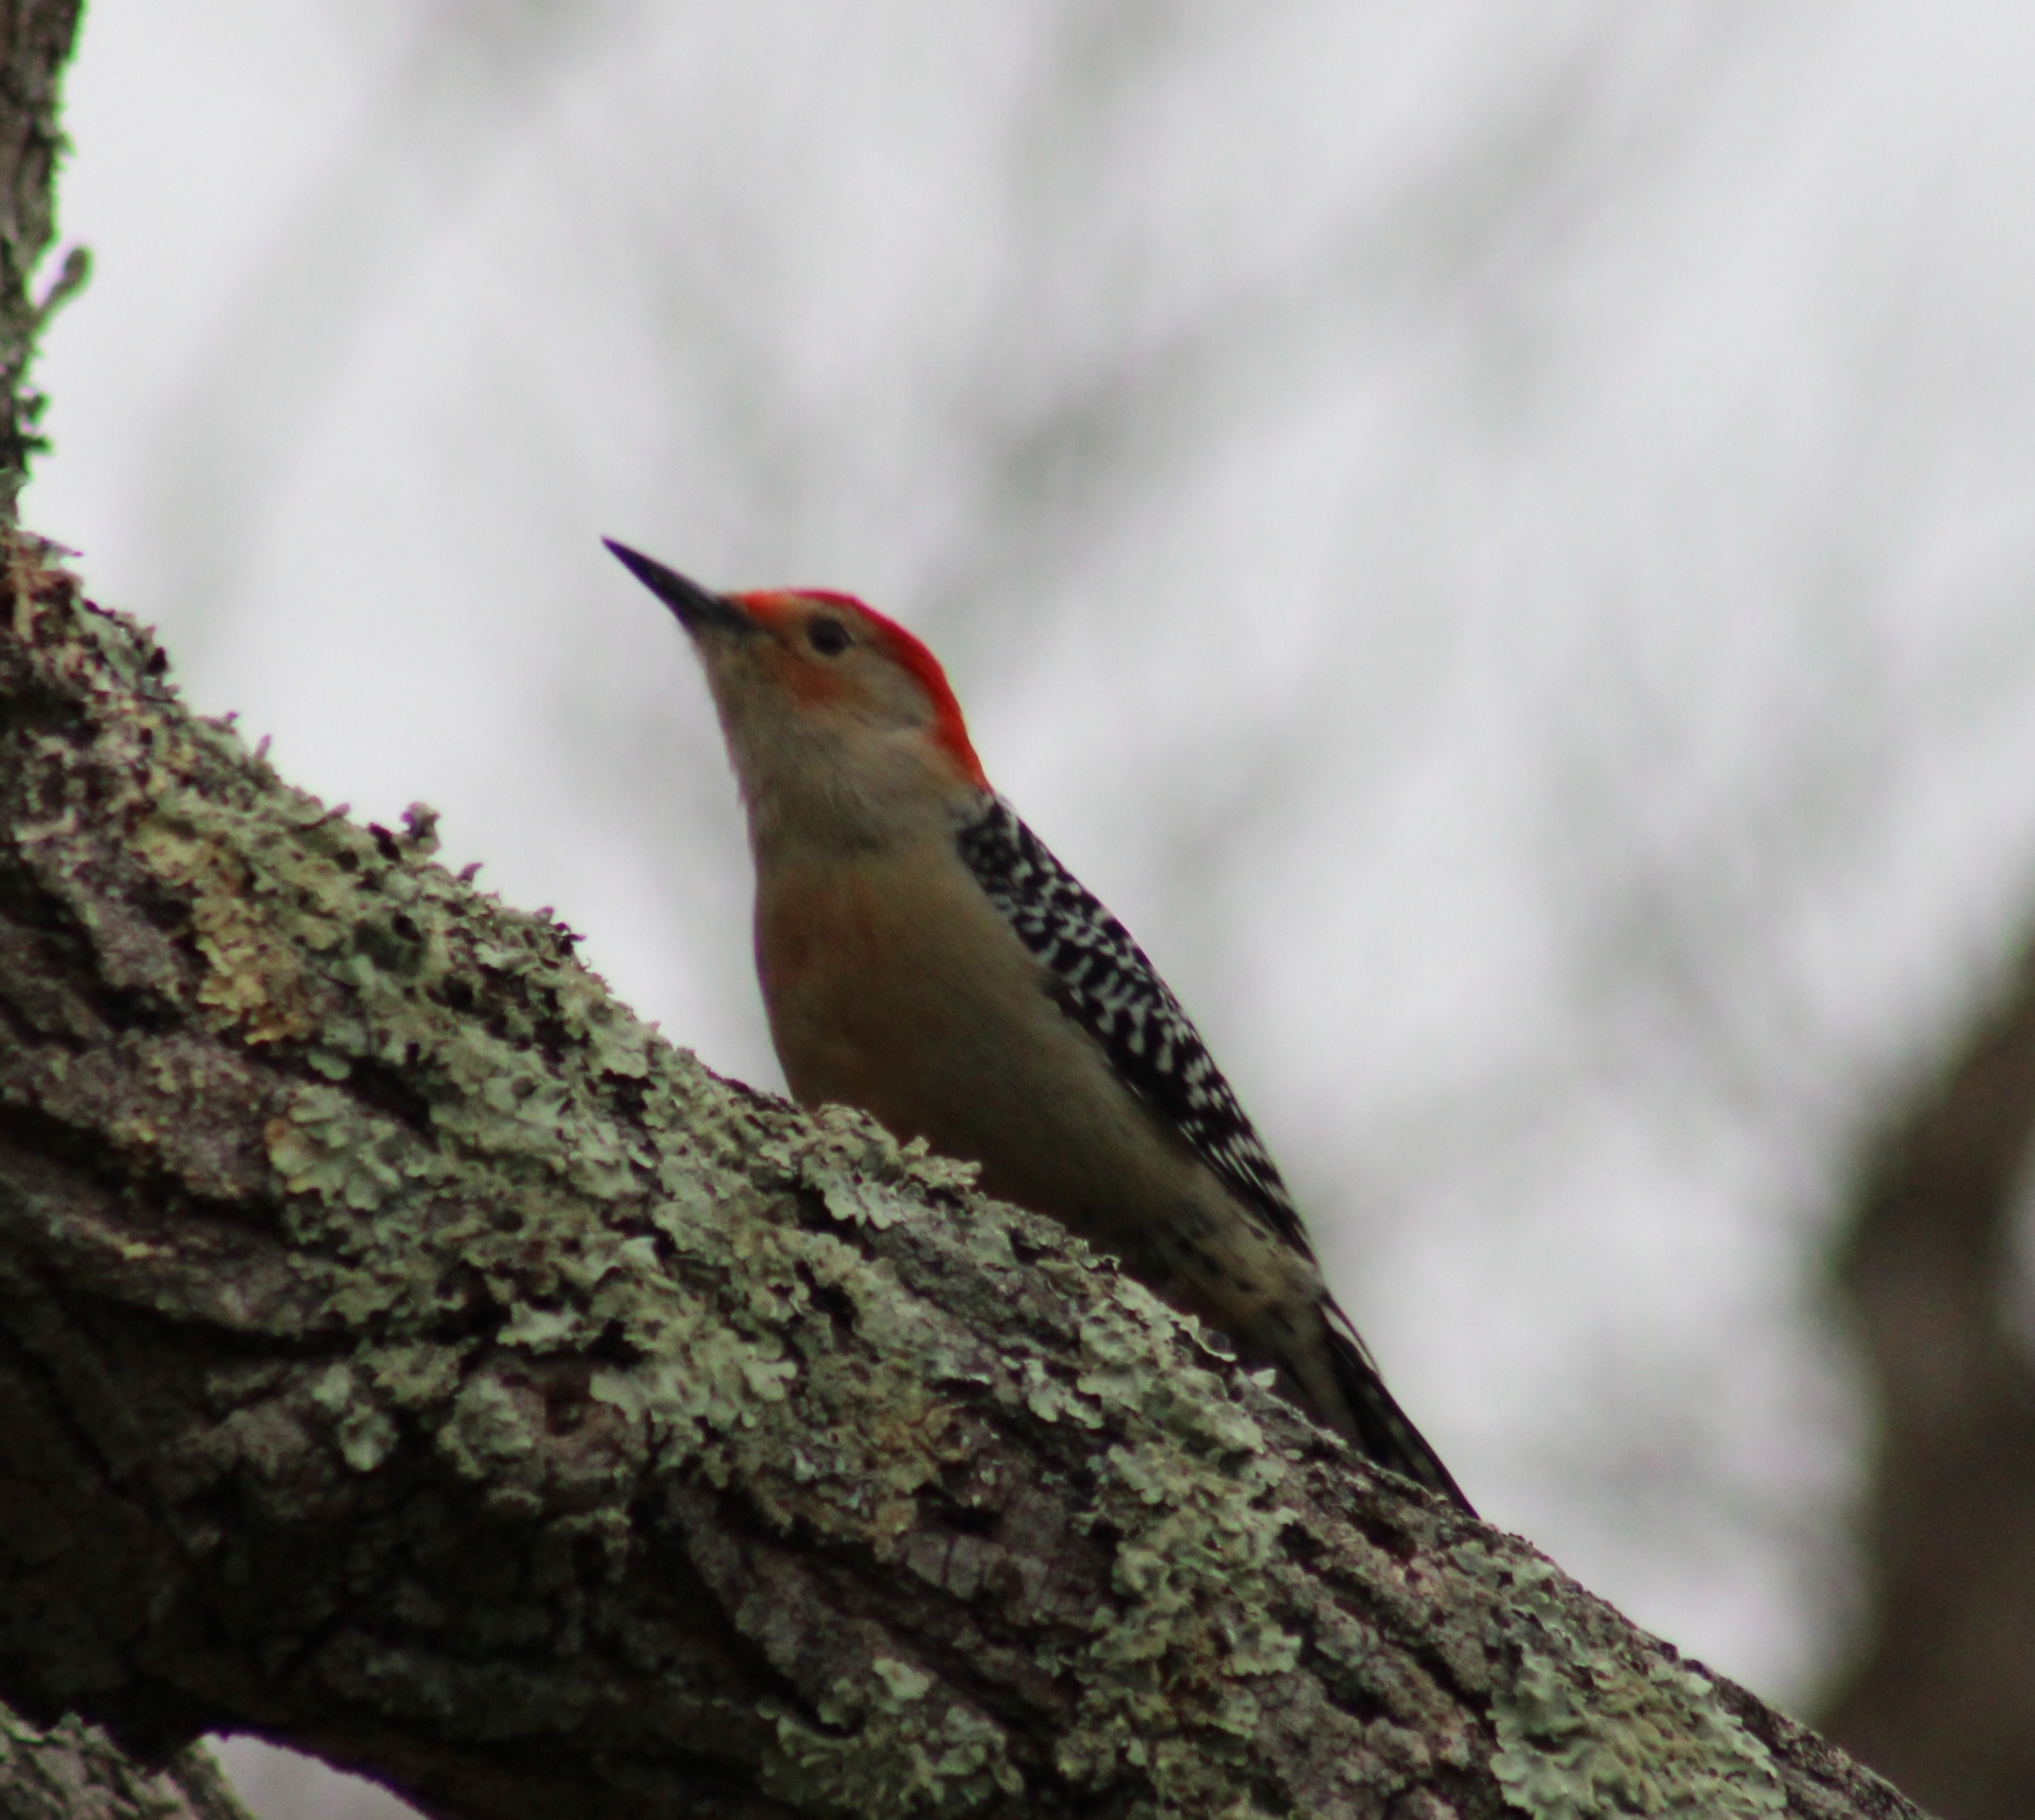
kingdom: Animalia
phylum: Chordata
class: Aves
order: Piciformes
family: Picidae
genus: Melanerpes
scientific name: Melanerpes carolinus
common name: Red-bellied woodpecker
